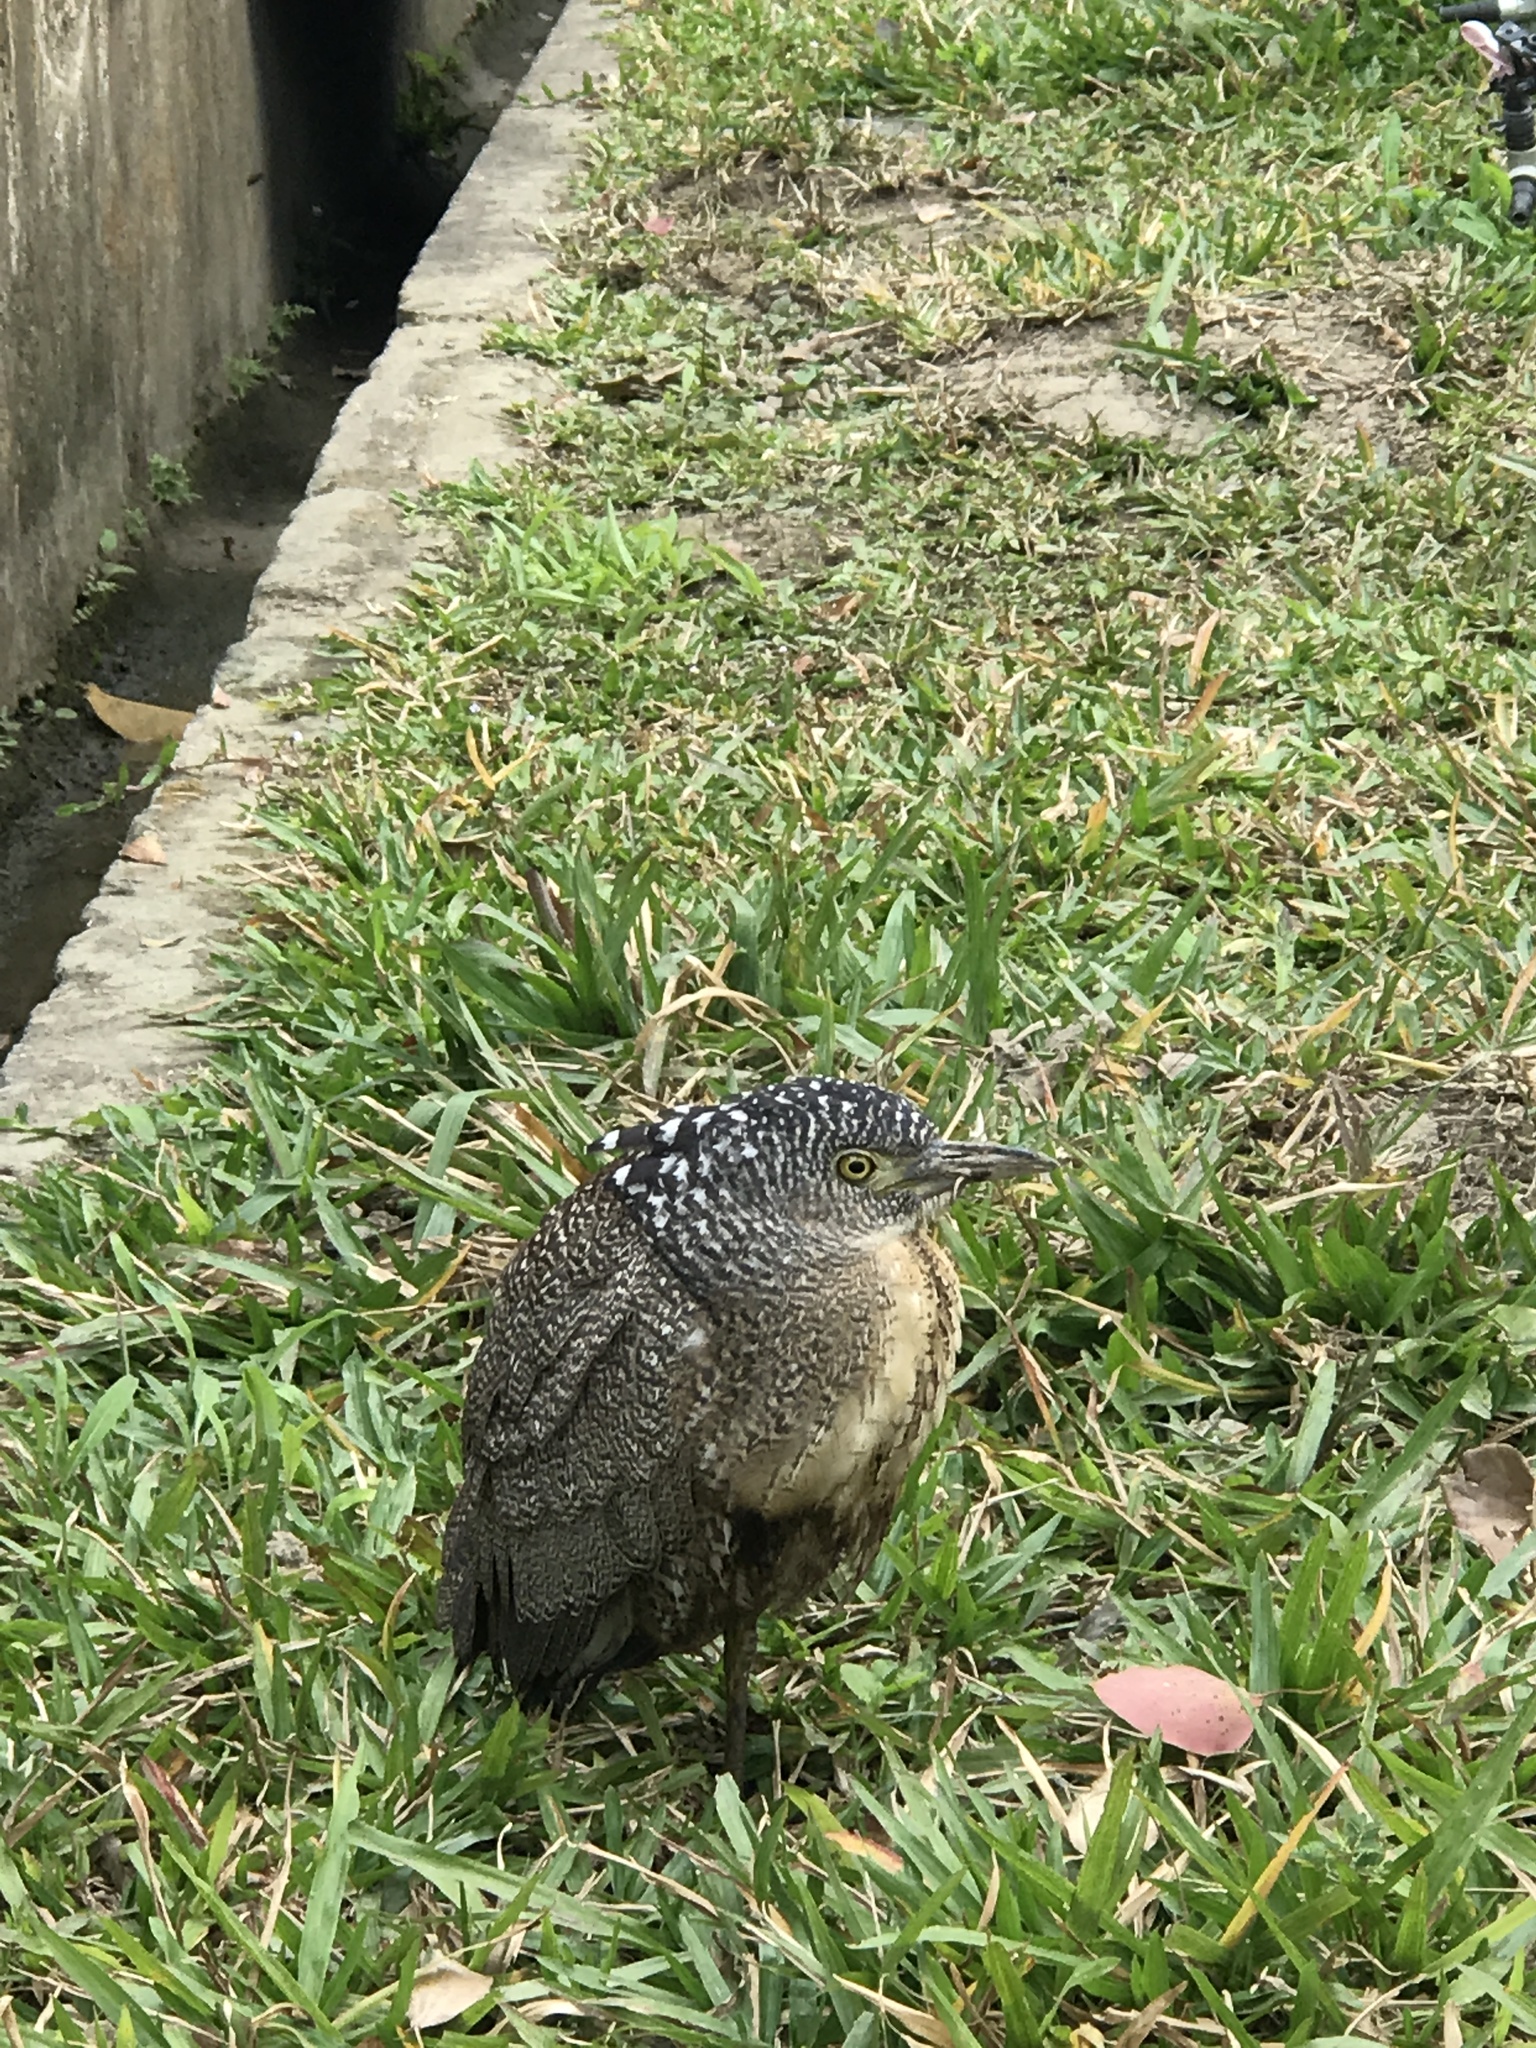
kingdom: Animalia
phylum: Chordata
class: Aves
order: Pelecaniformes
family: Ardeidae
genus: Gorsachius
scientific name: Gorsachius melanolophus
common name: Malayan night heron
